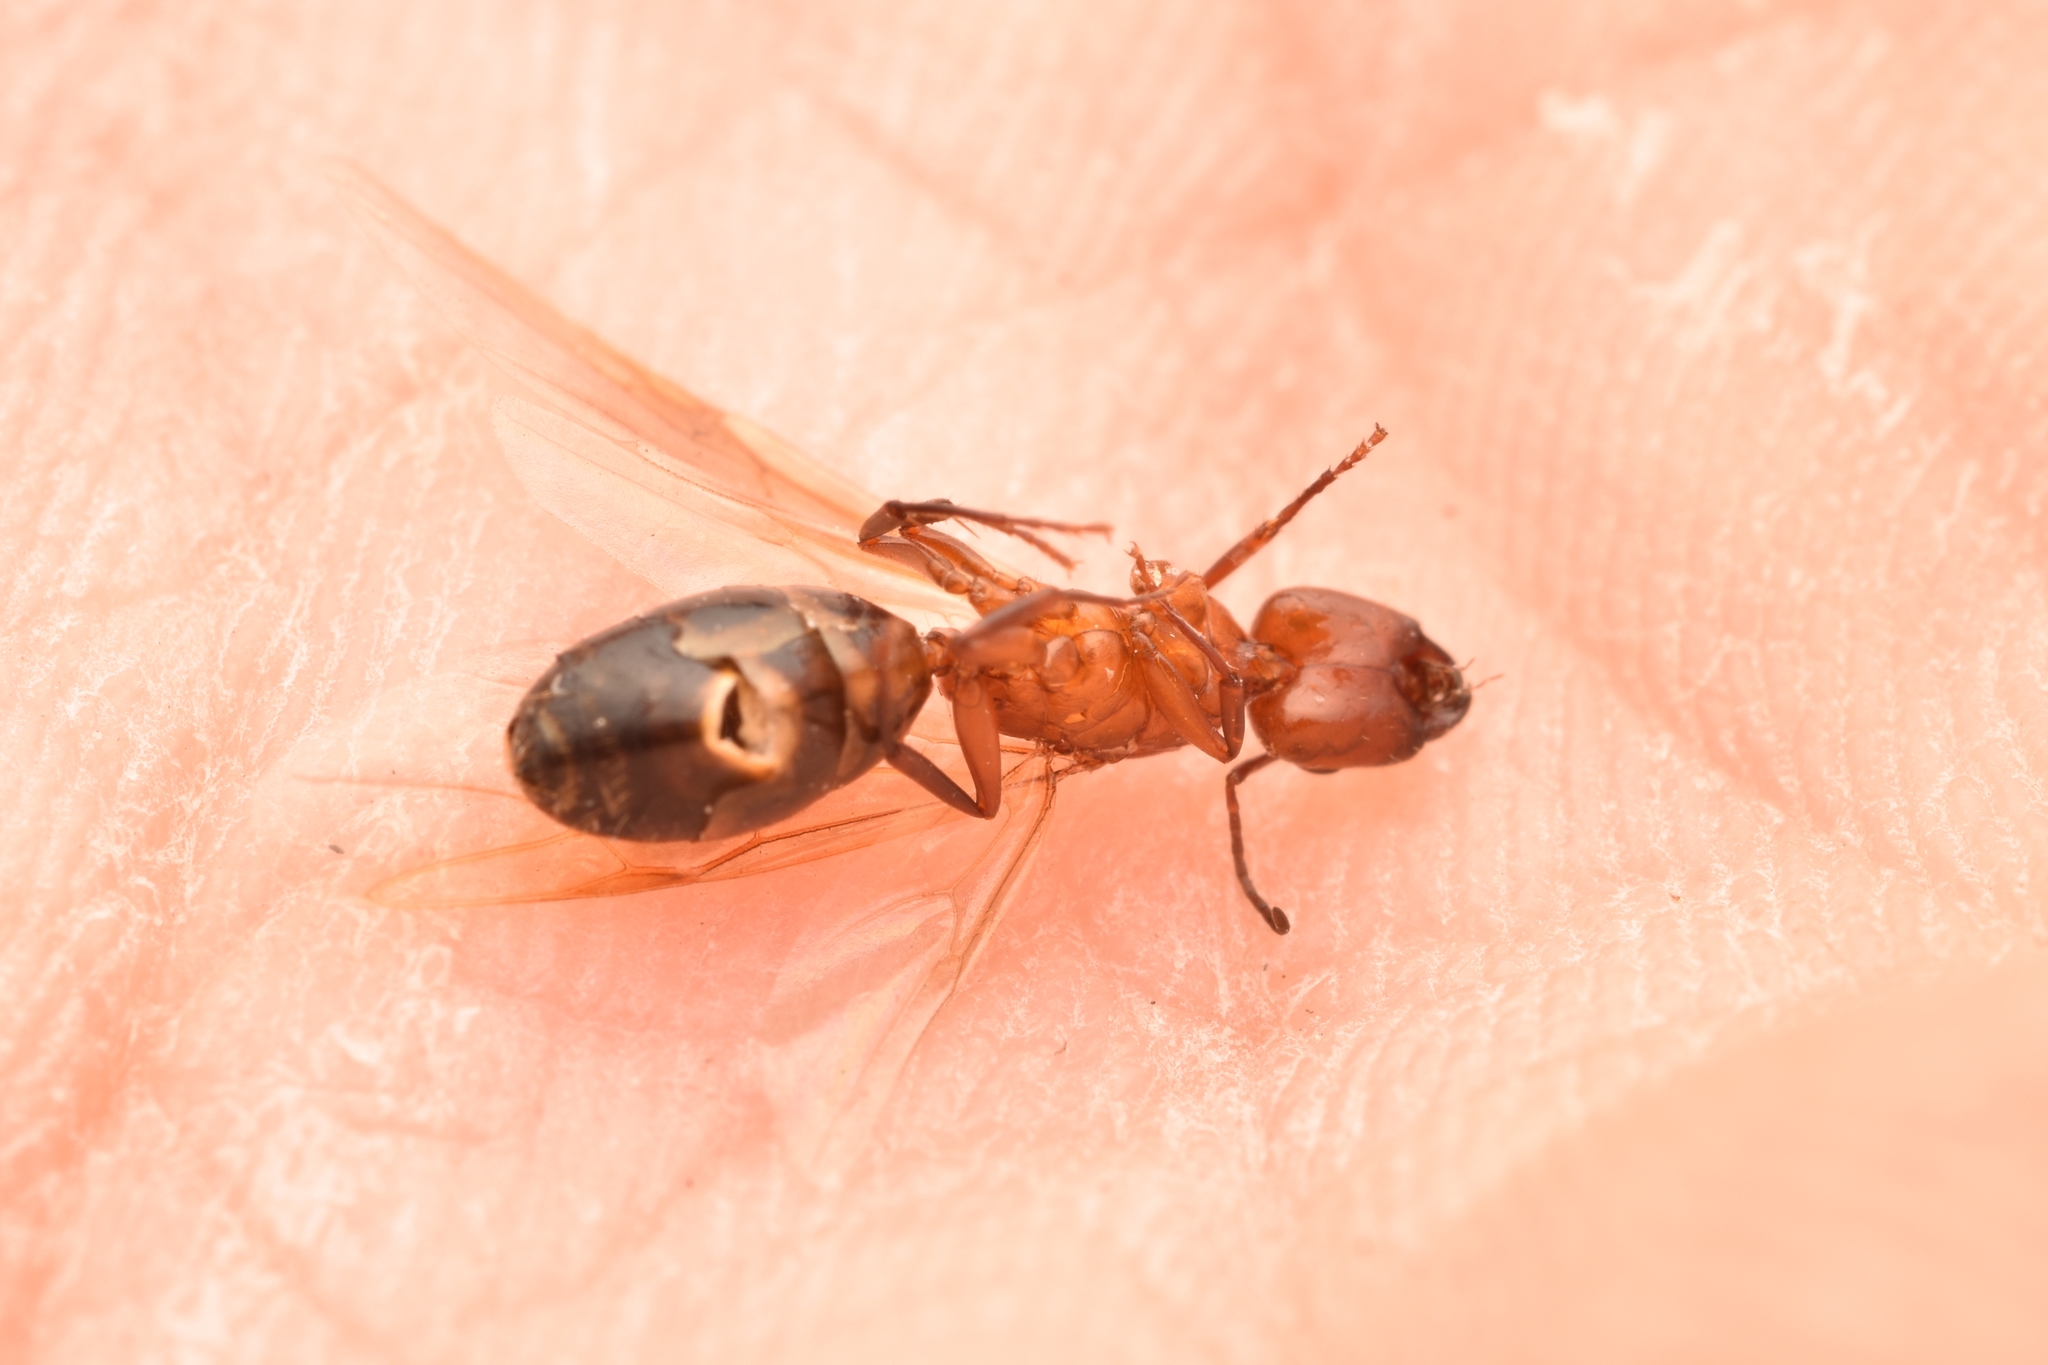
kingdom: Animalia
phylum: Arthropoda
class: Arachnida
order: Araneae
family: Salticidae
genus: Phidippus
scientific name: Phidippus audax
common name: Bold jumper
